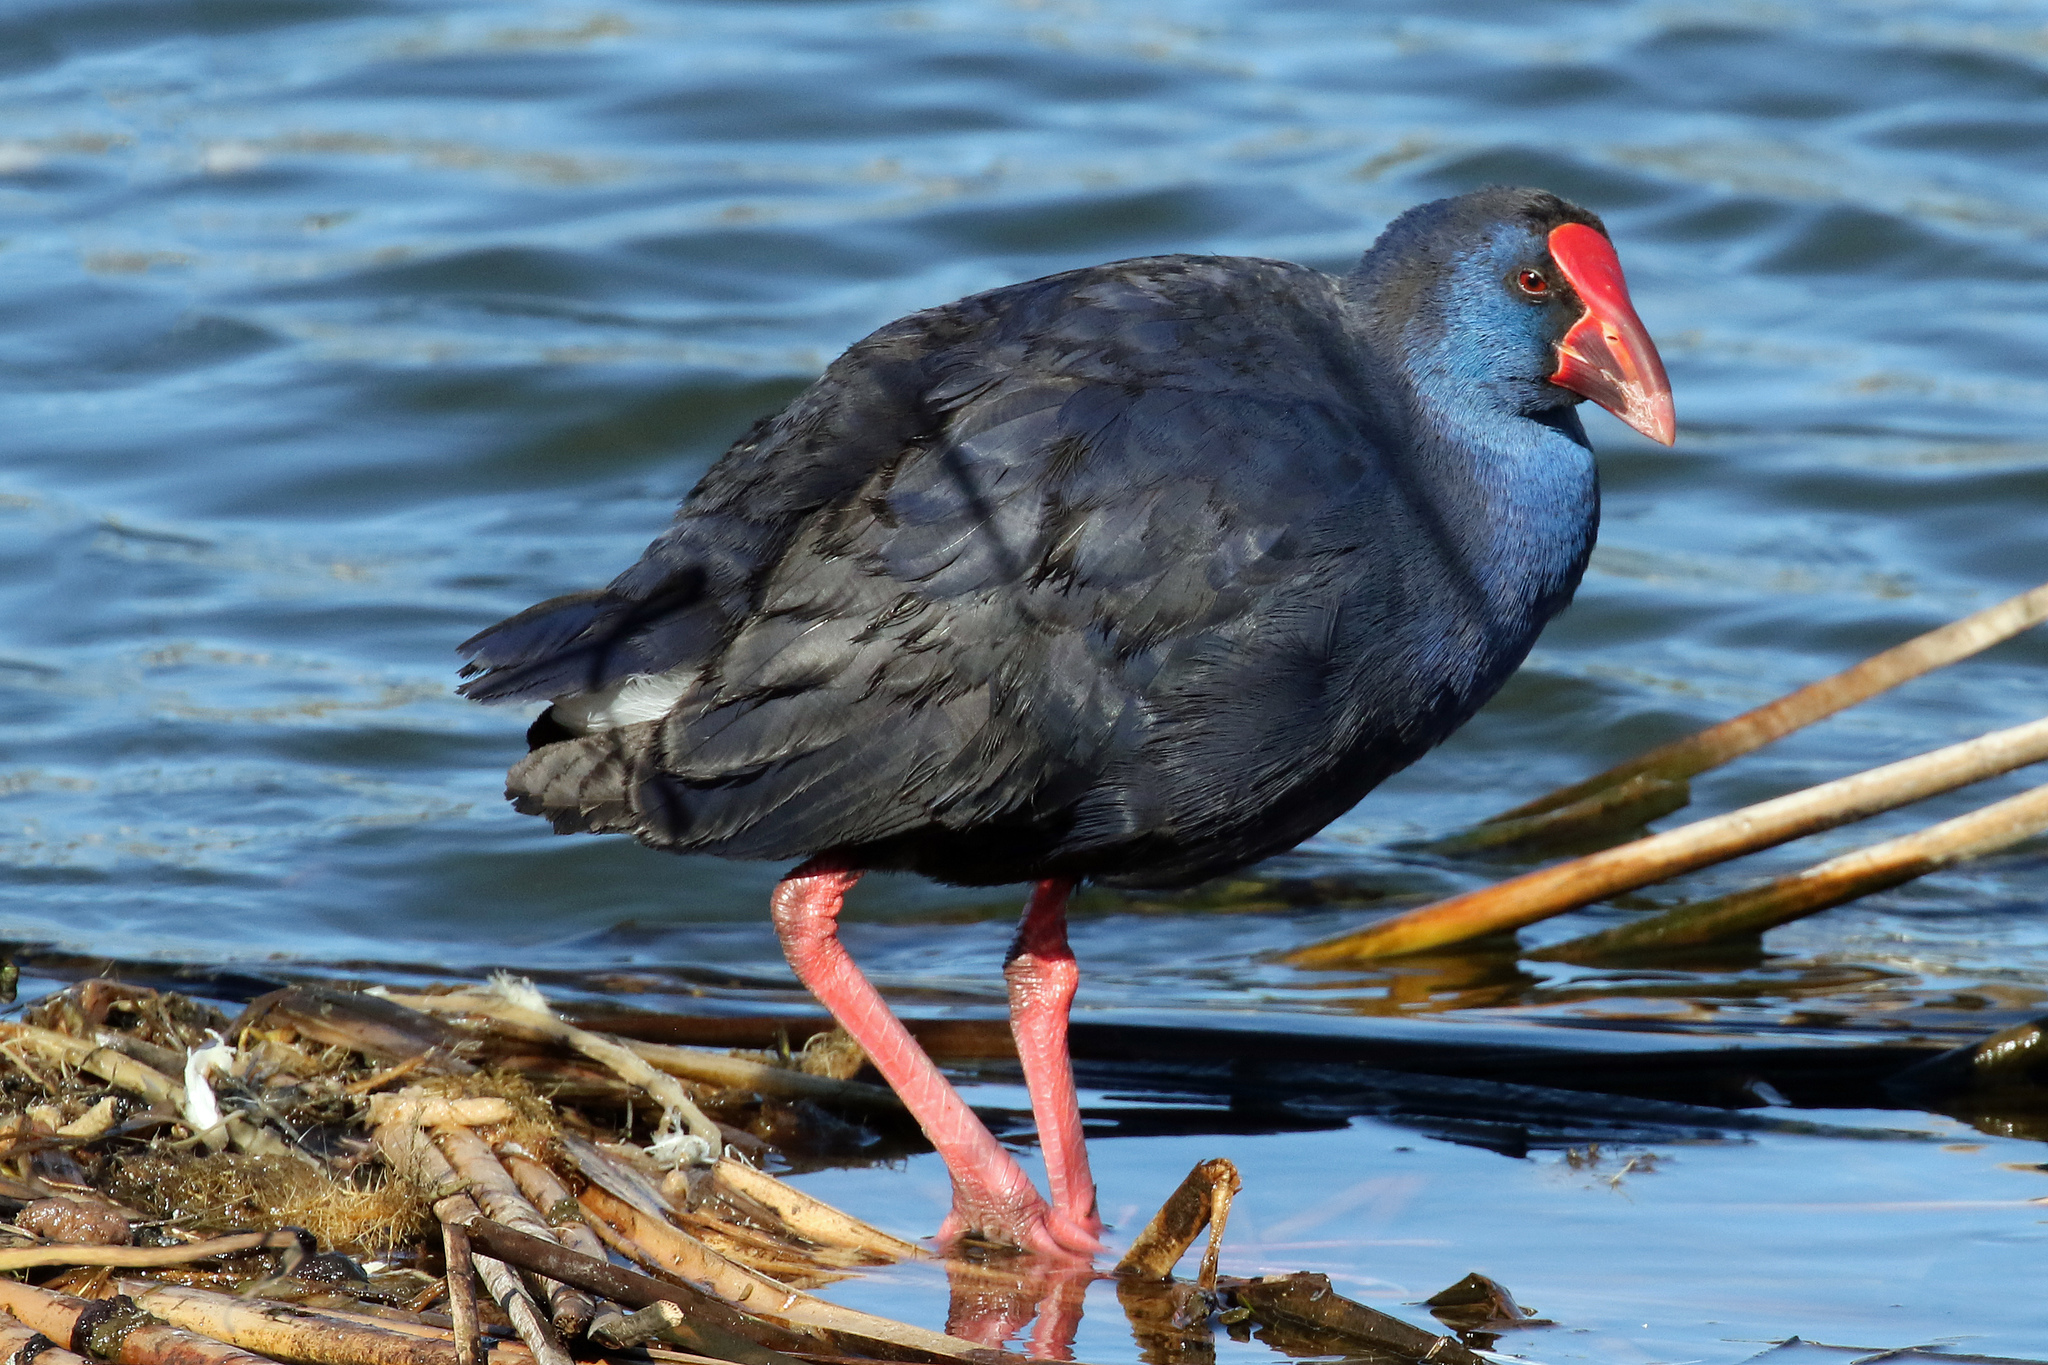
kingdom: Animalia
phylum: Chordata
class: Aves
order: Gruiformes
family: Rallidae
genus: Porphyrio
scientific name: Porphyrio porphyrio
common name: Purple swamphen
